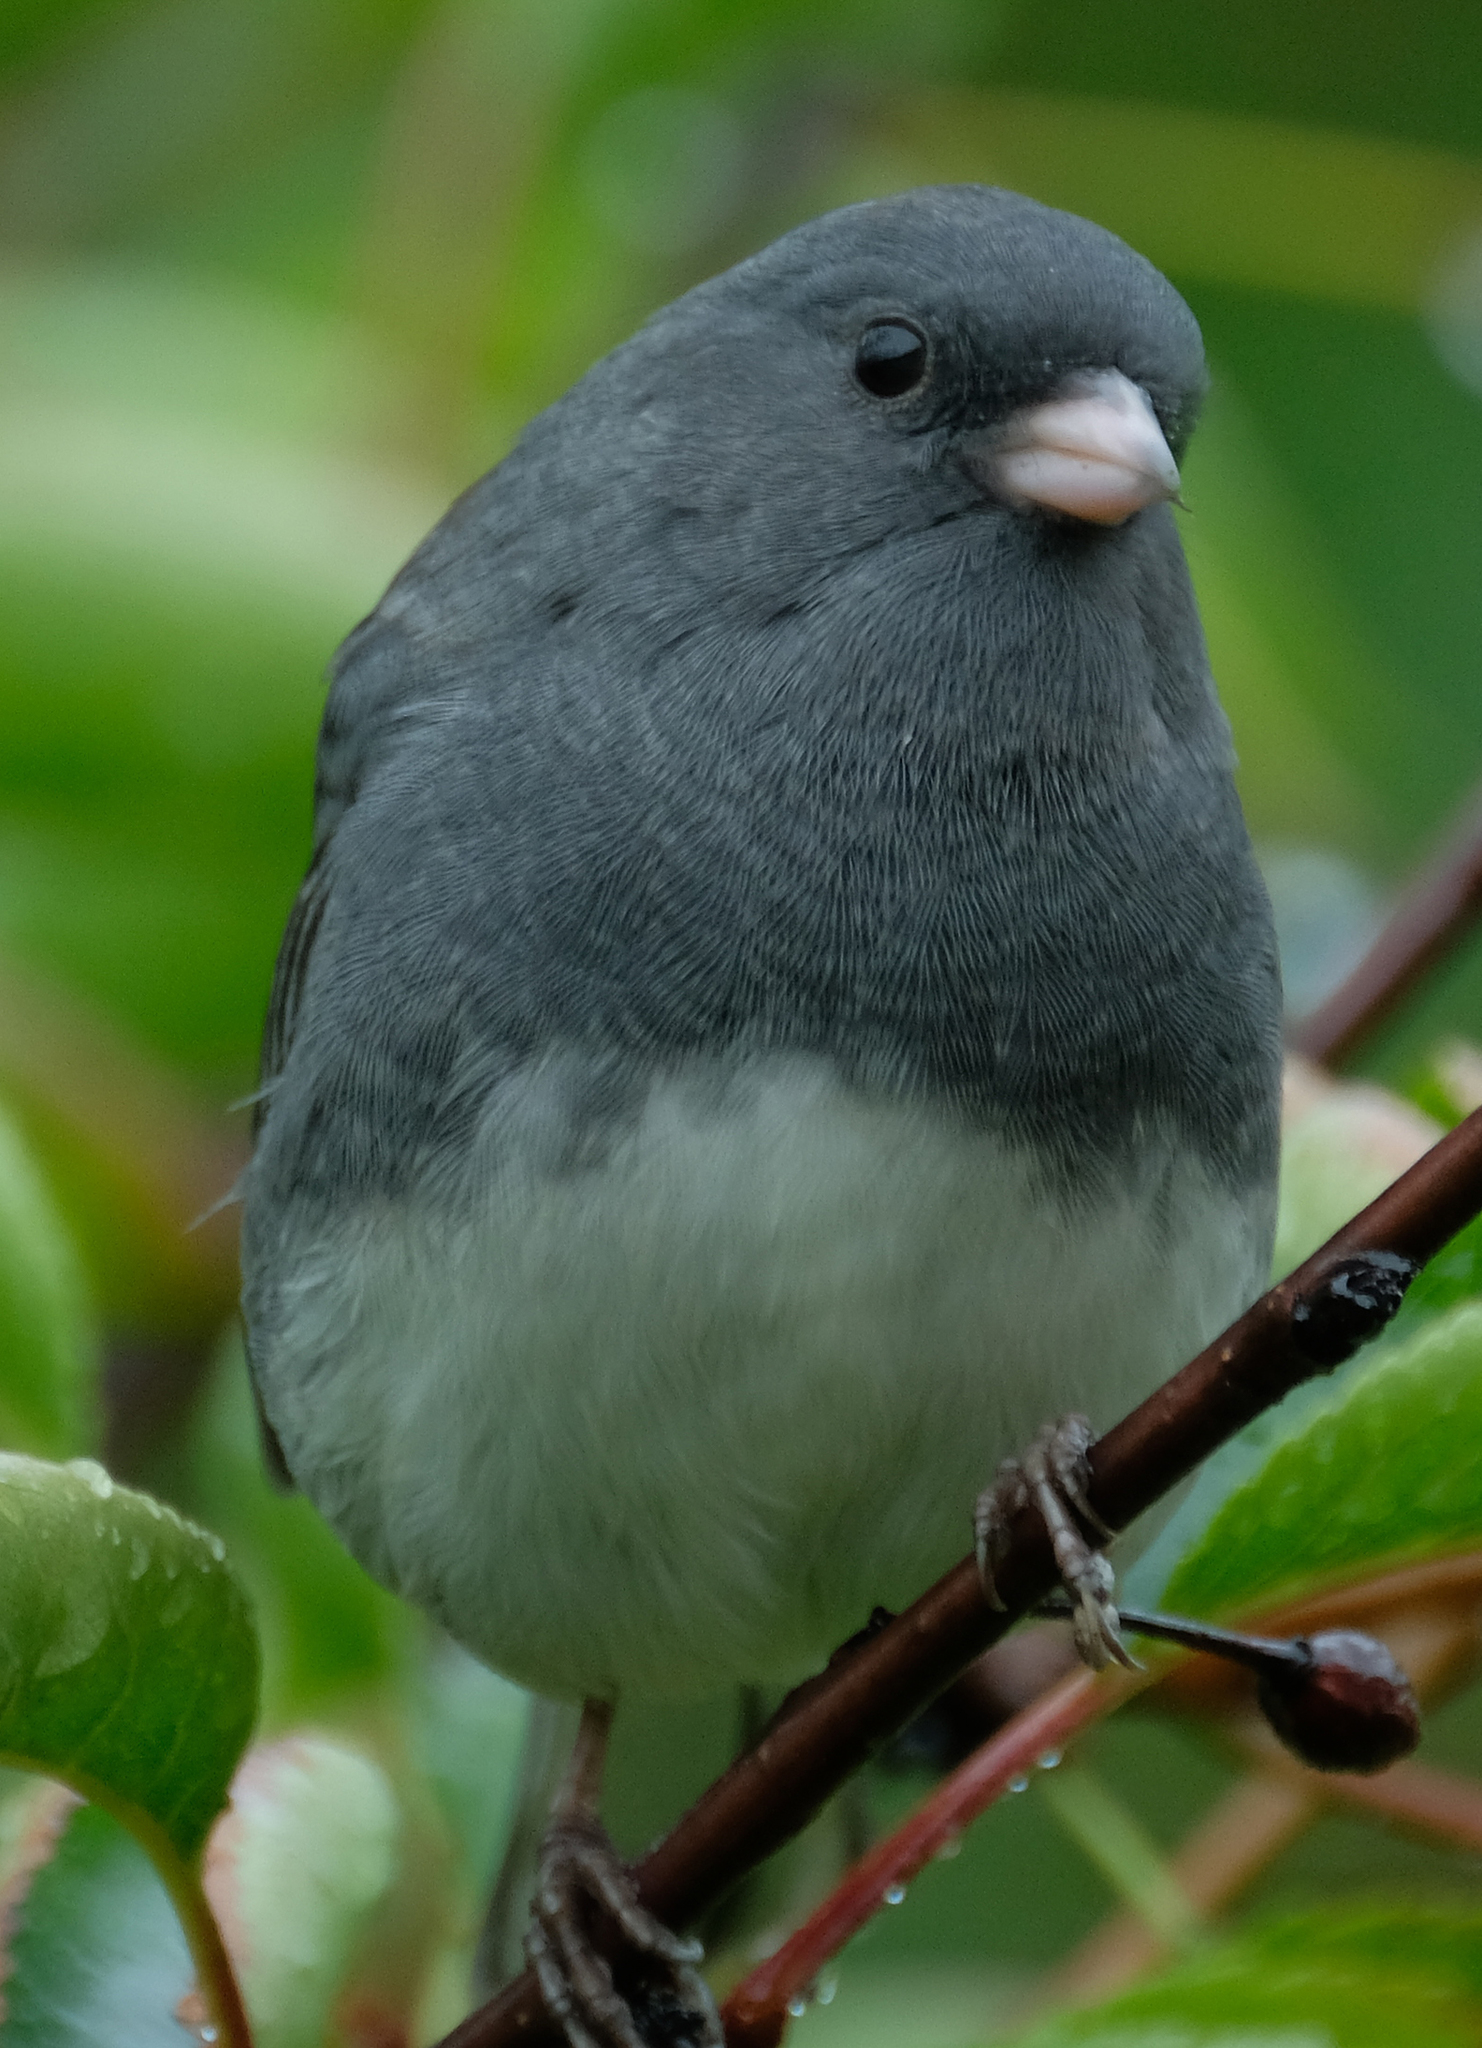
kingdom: Animalia
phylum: Chordata
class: Aves
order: Passeriformes
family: Passerellidae
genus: Junco
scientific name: Junco hyemalis
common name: Dark-eyed junco
